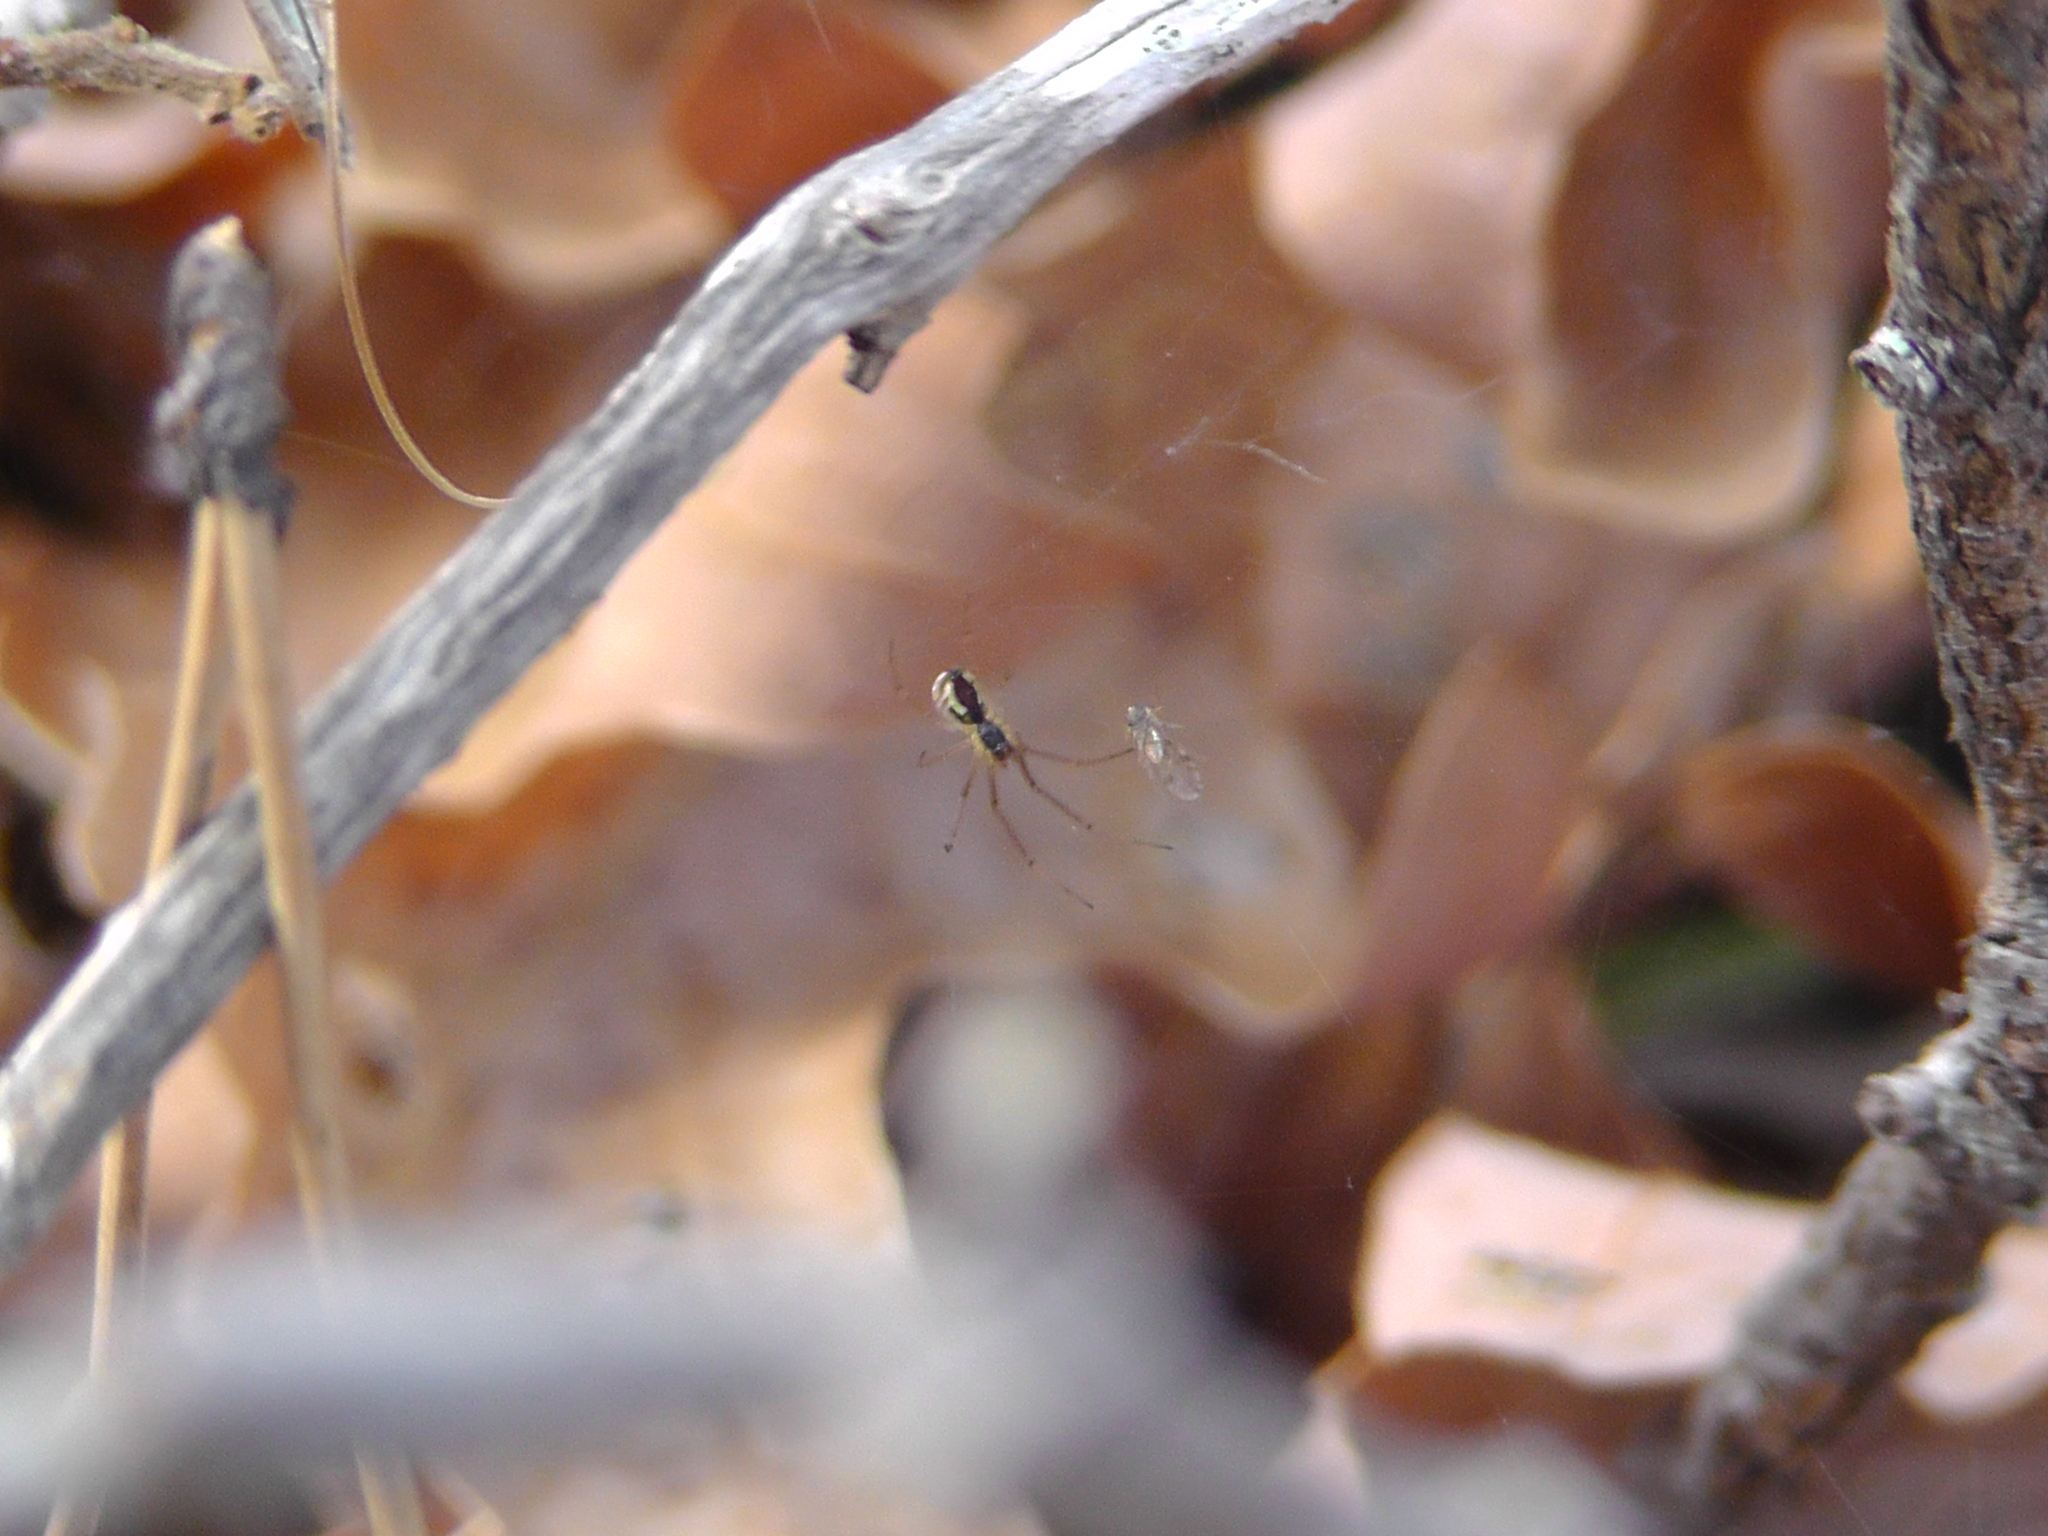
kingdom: Animalia
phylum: Arthropoda
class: Arachnida
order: Araneae
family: Linyphiidae
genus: Neriene
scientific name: Neriene radiata
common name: Filmy dome spider
